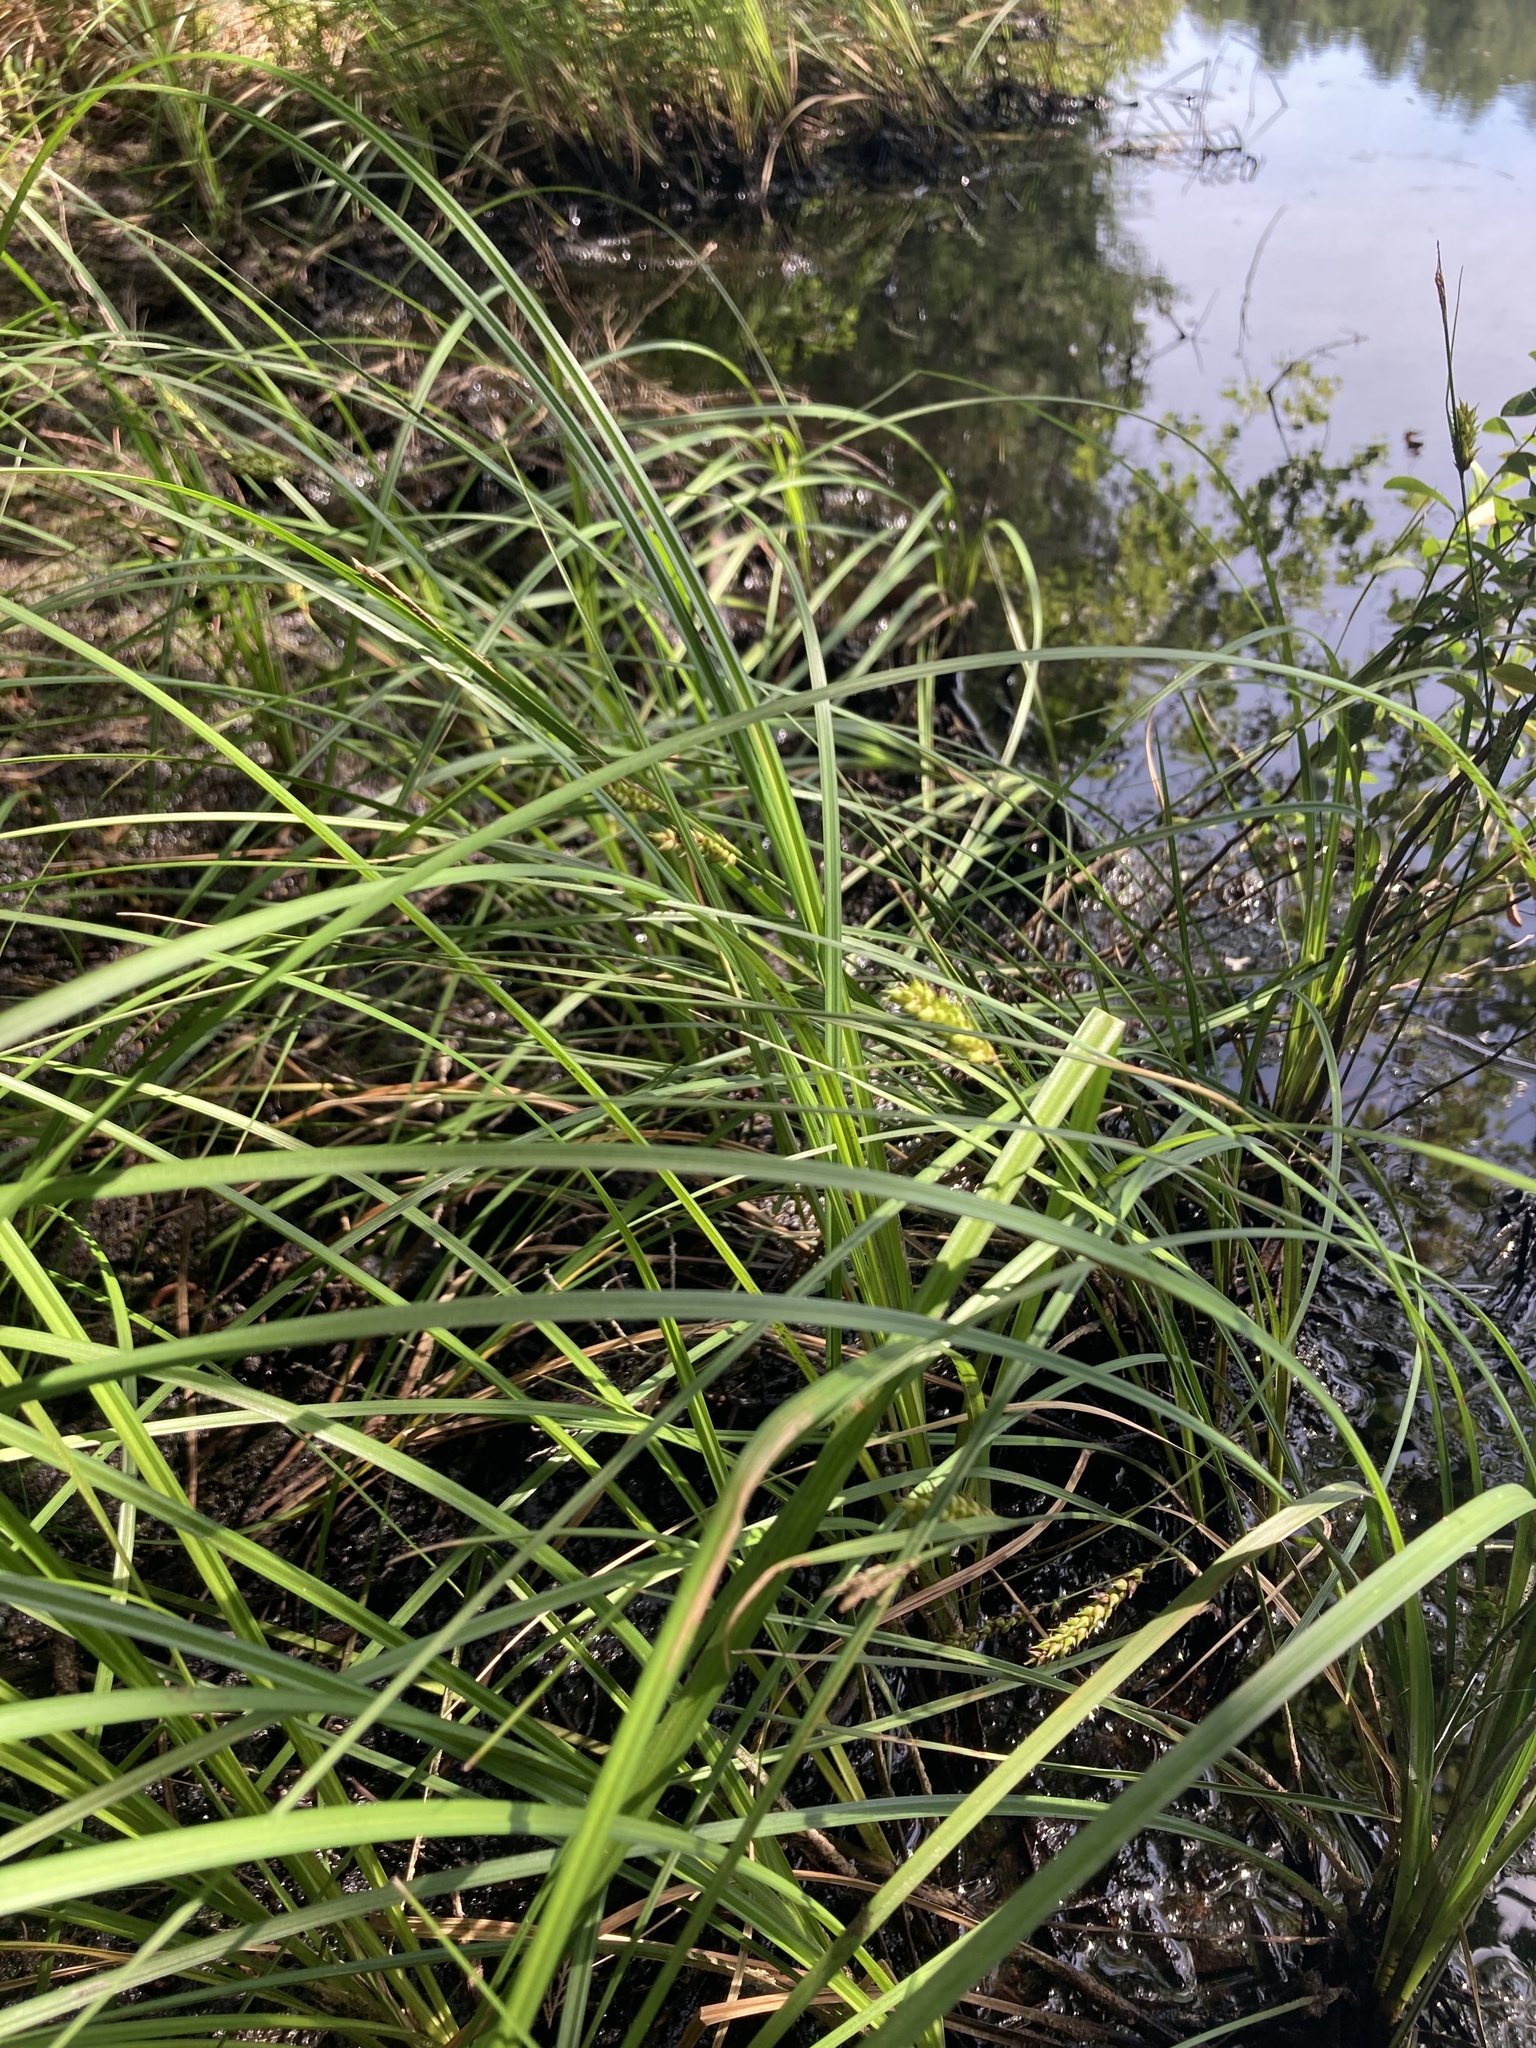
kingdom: Plantae
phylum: Tracheophyta
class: Liliopsida
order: Poales
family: Cyperaceae
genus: Carex
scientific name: Carex striata
